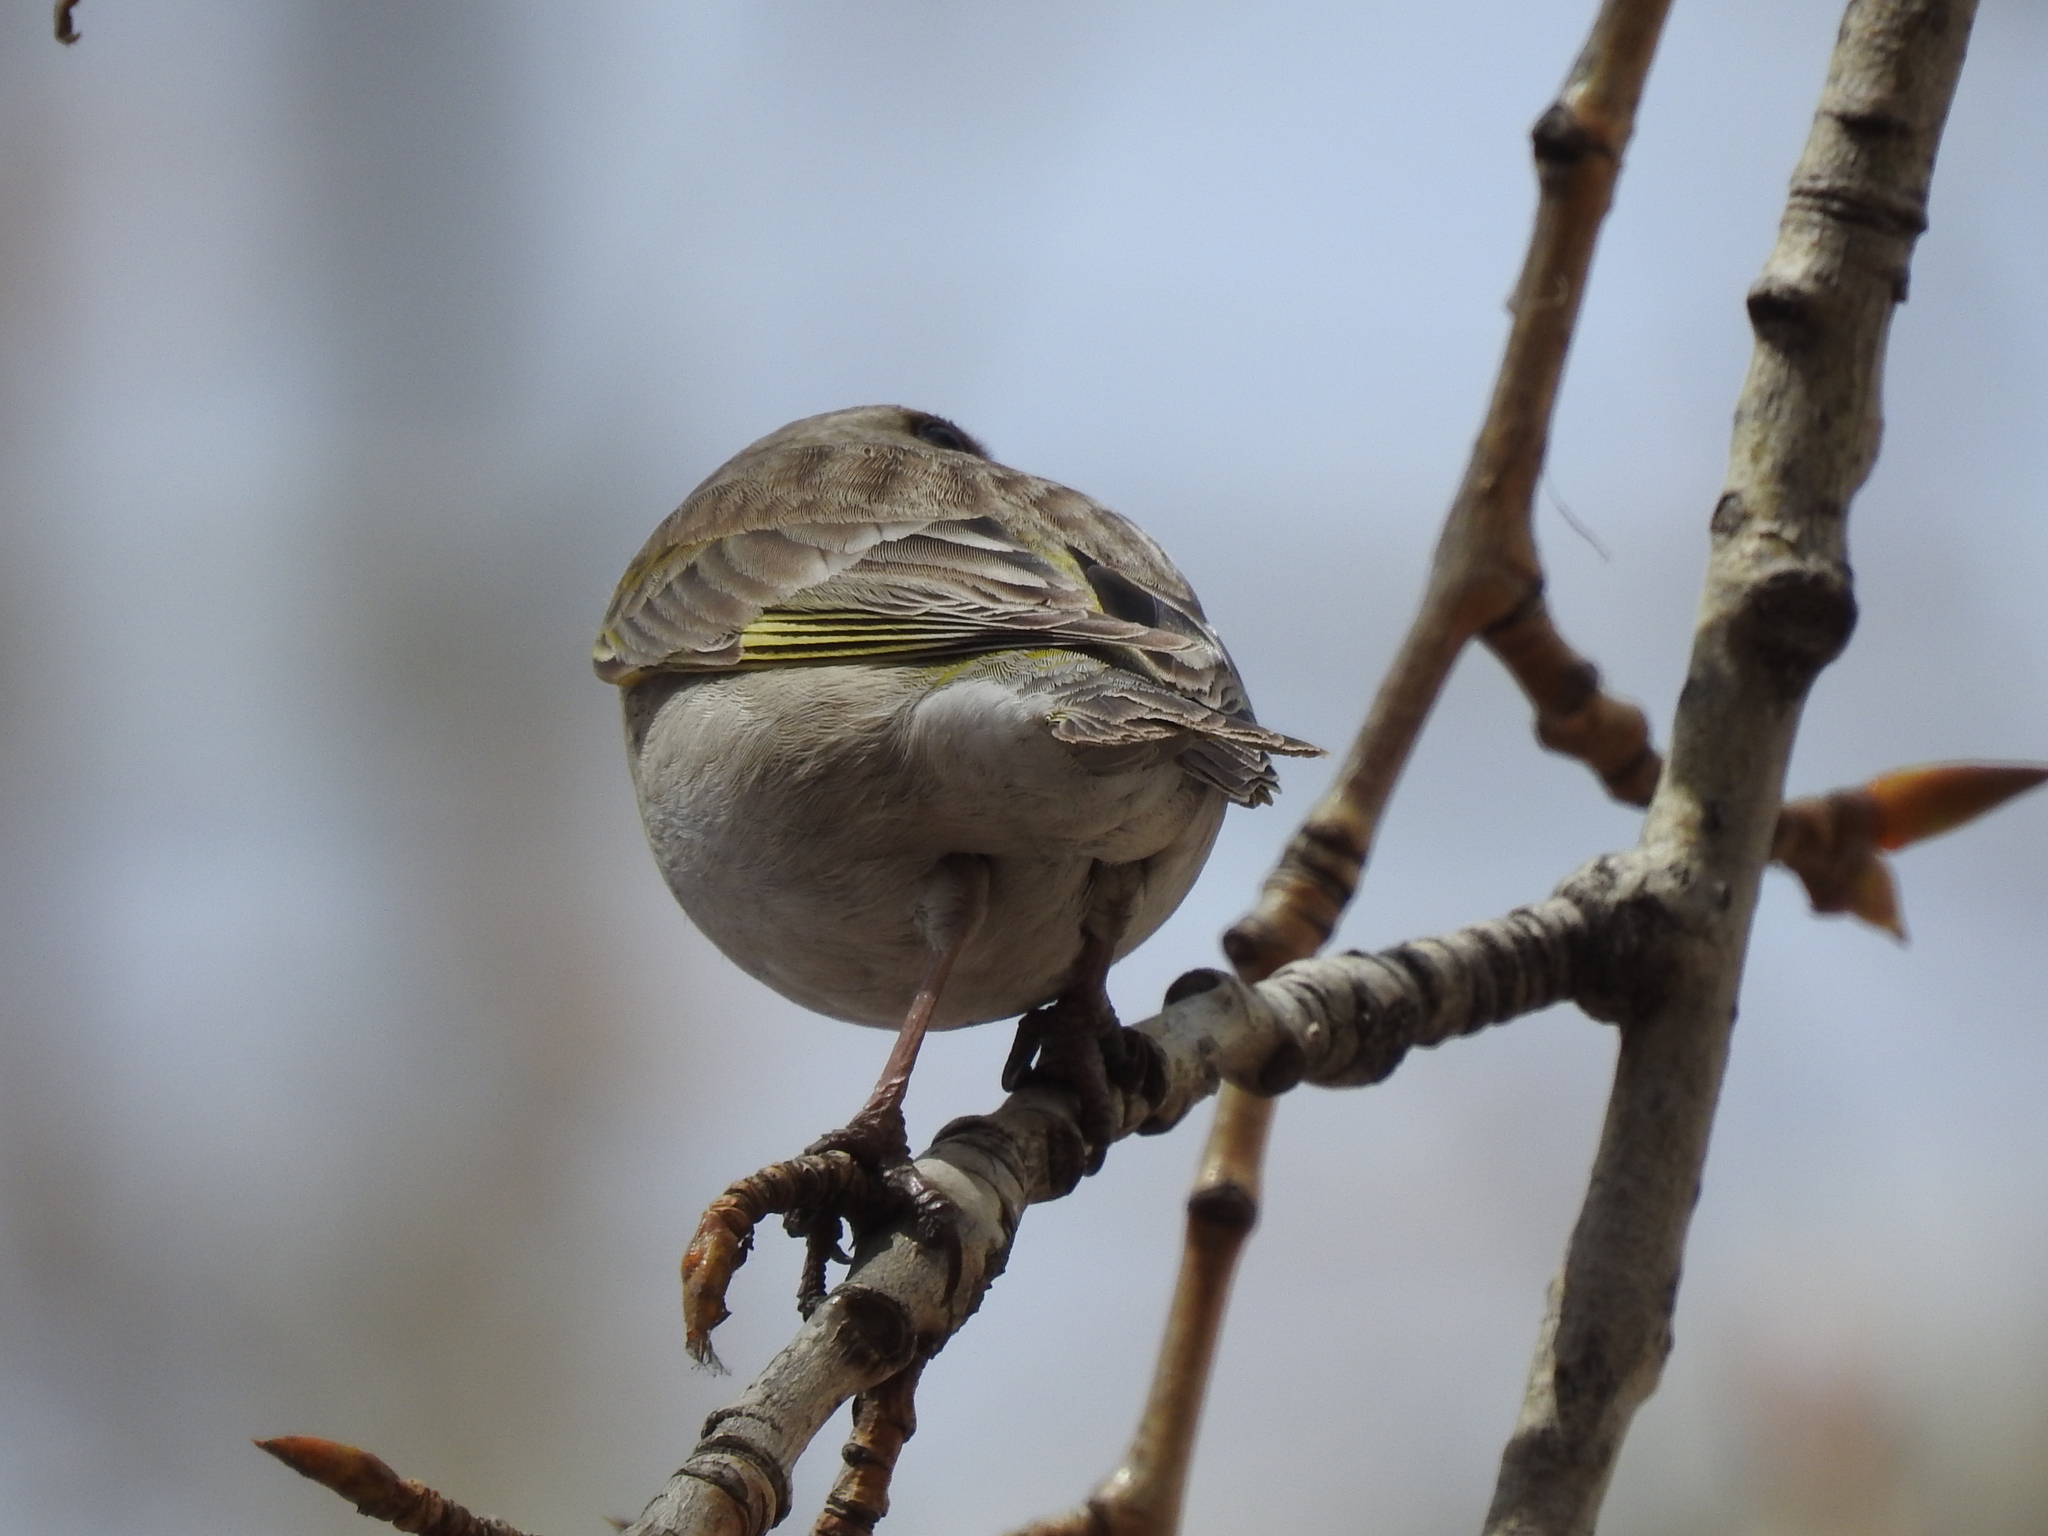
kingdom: Plantae
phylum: Tracheophyta
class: Liliopsida
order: Poales
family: Poaceae
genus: Chloris
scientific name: Chloris chloris
